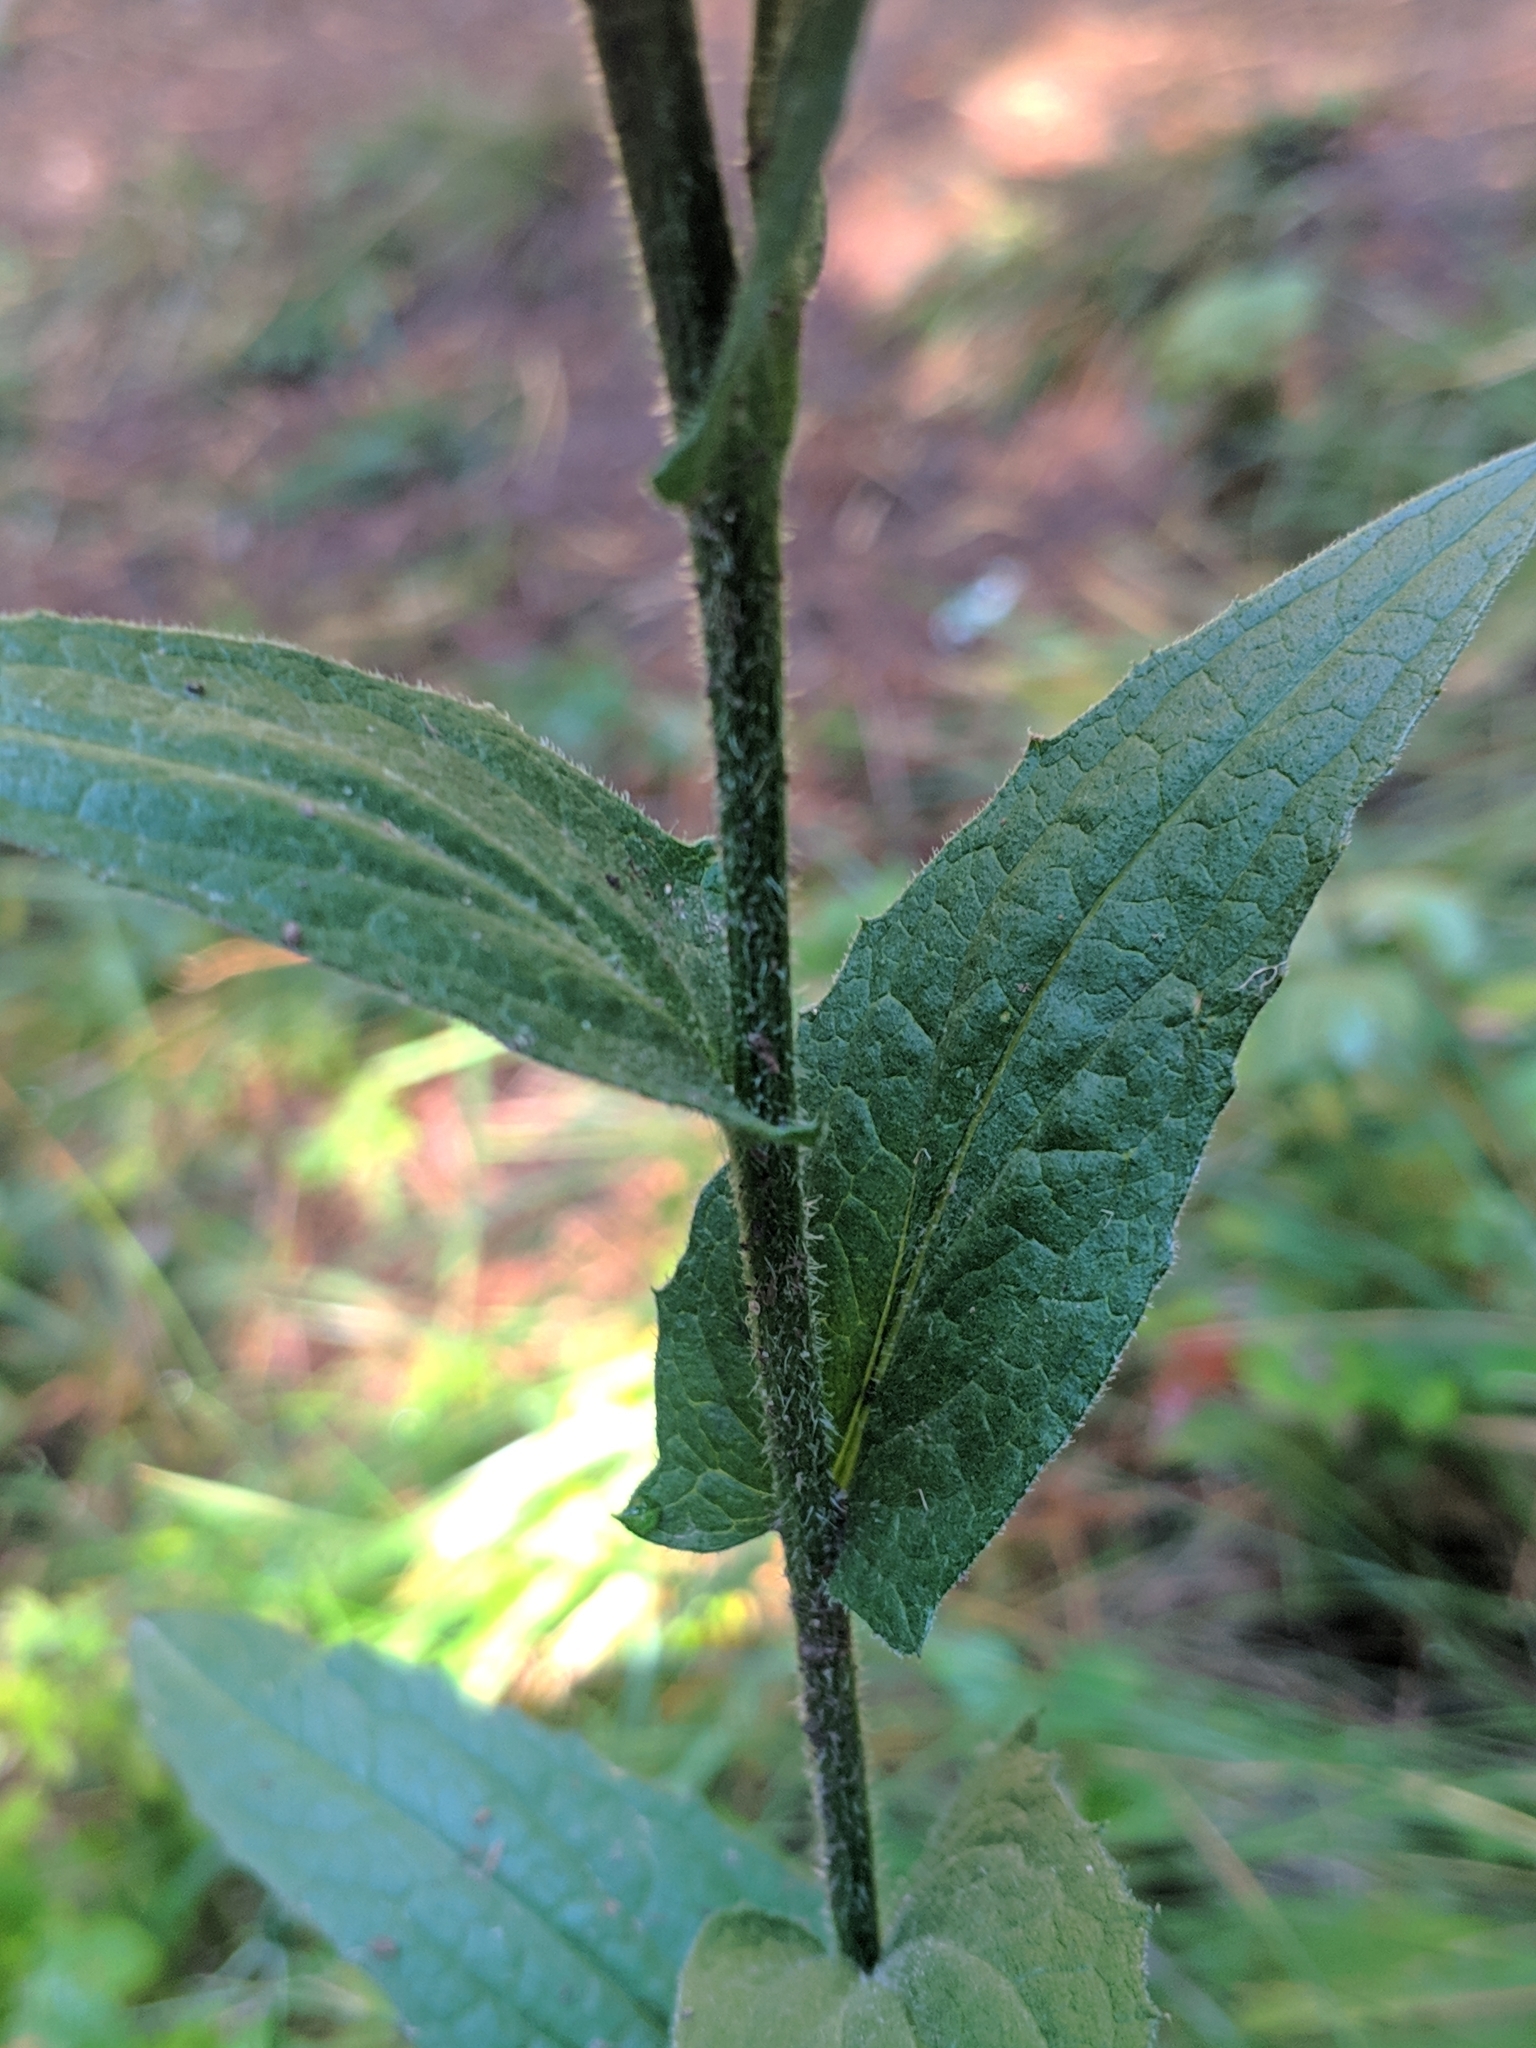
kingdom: Plantae
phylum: Tracheophyta
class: Magnoliopsida
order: Asterales
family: Asteraceae
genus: Centaurea
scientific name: Centaurea nervosa
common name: Singleflower knapweed
